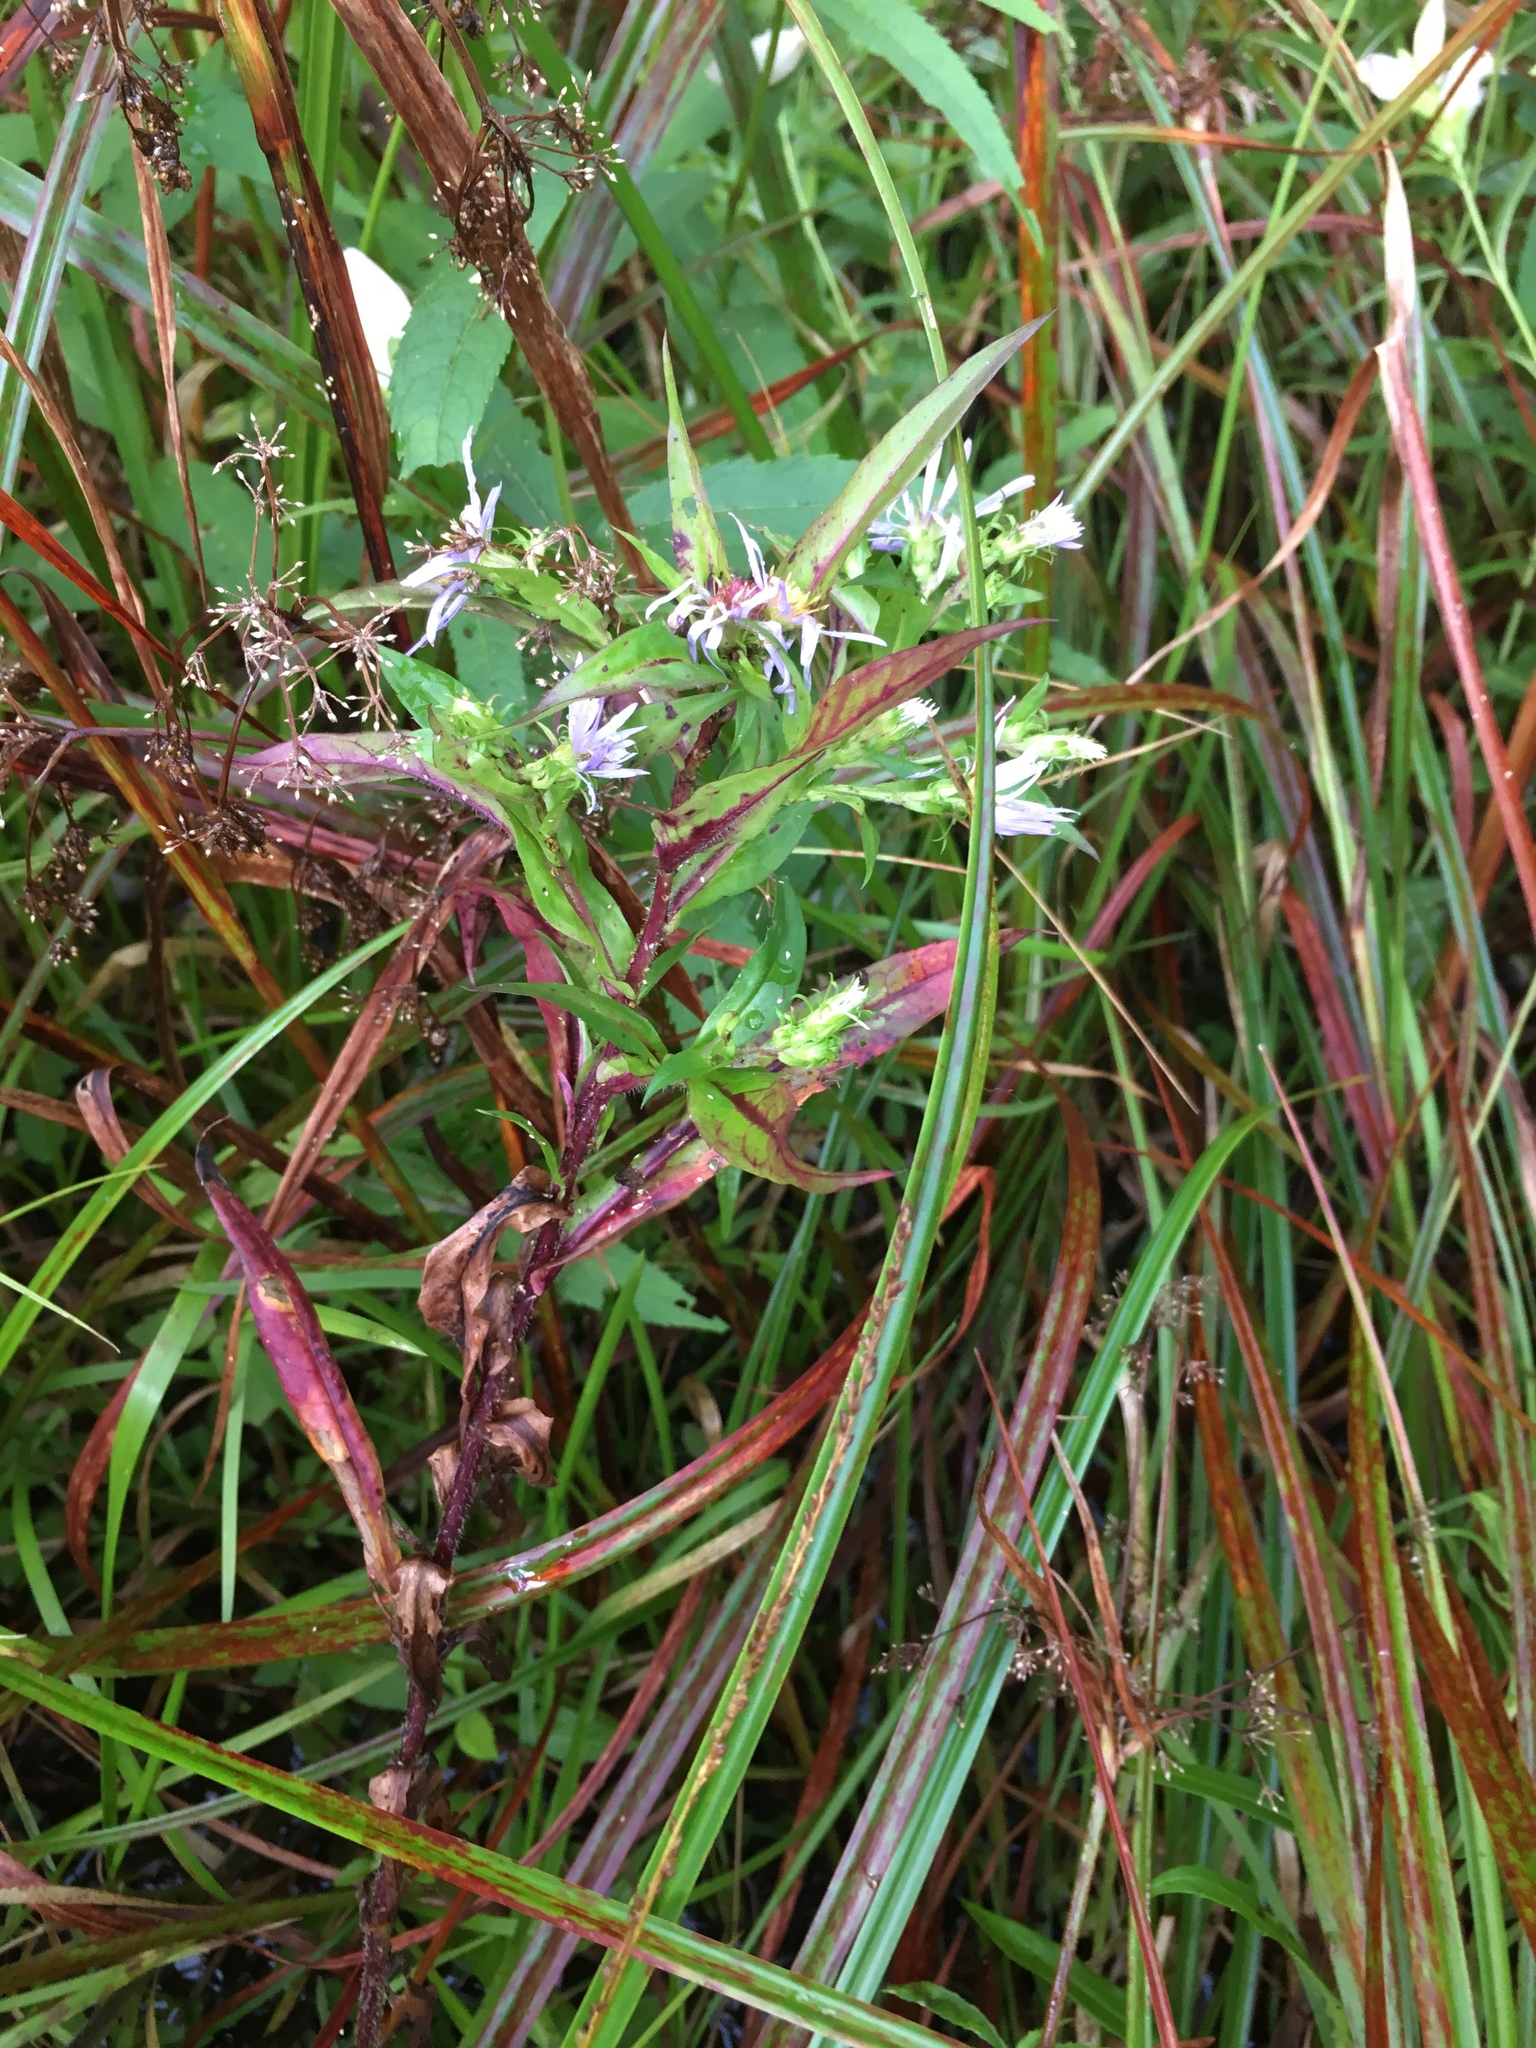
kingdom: Plantae
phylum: Tracheophyta
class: Magnoliopsida
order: Asterales
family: Asteraceae
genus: Symphyotrichum
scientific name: Symphyotrichum puniceum
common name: Bog aster
